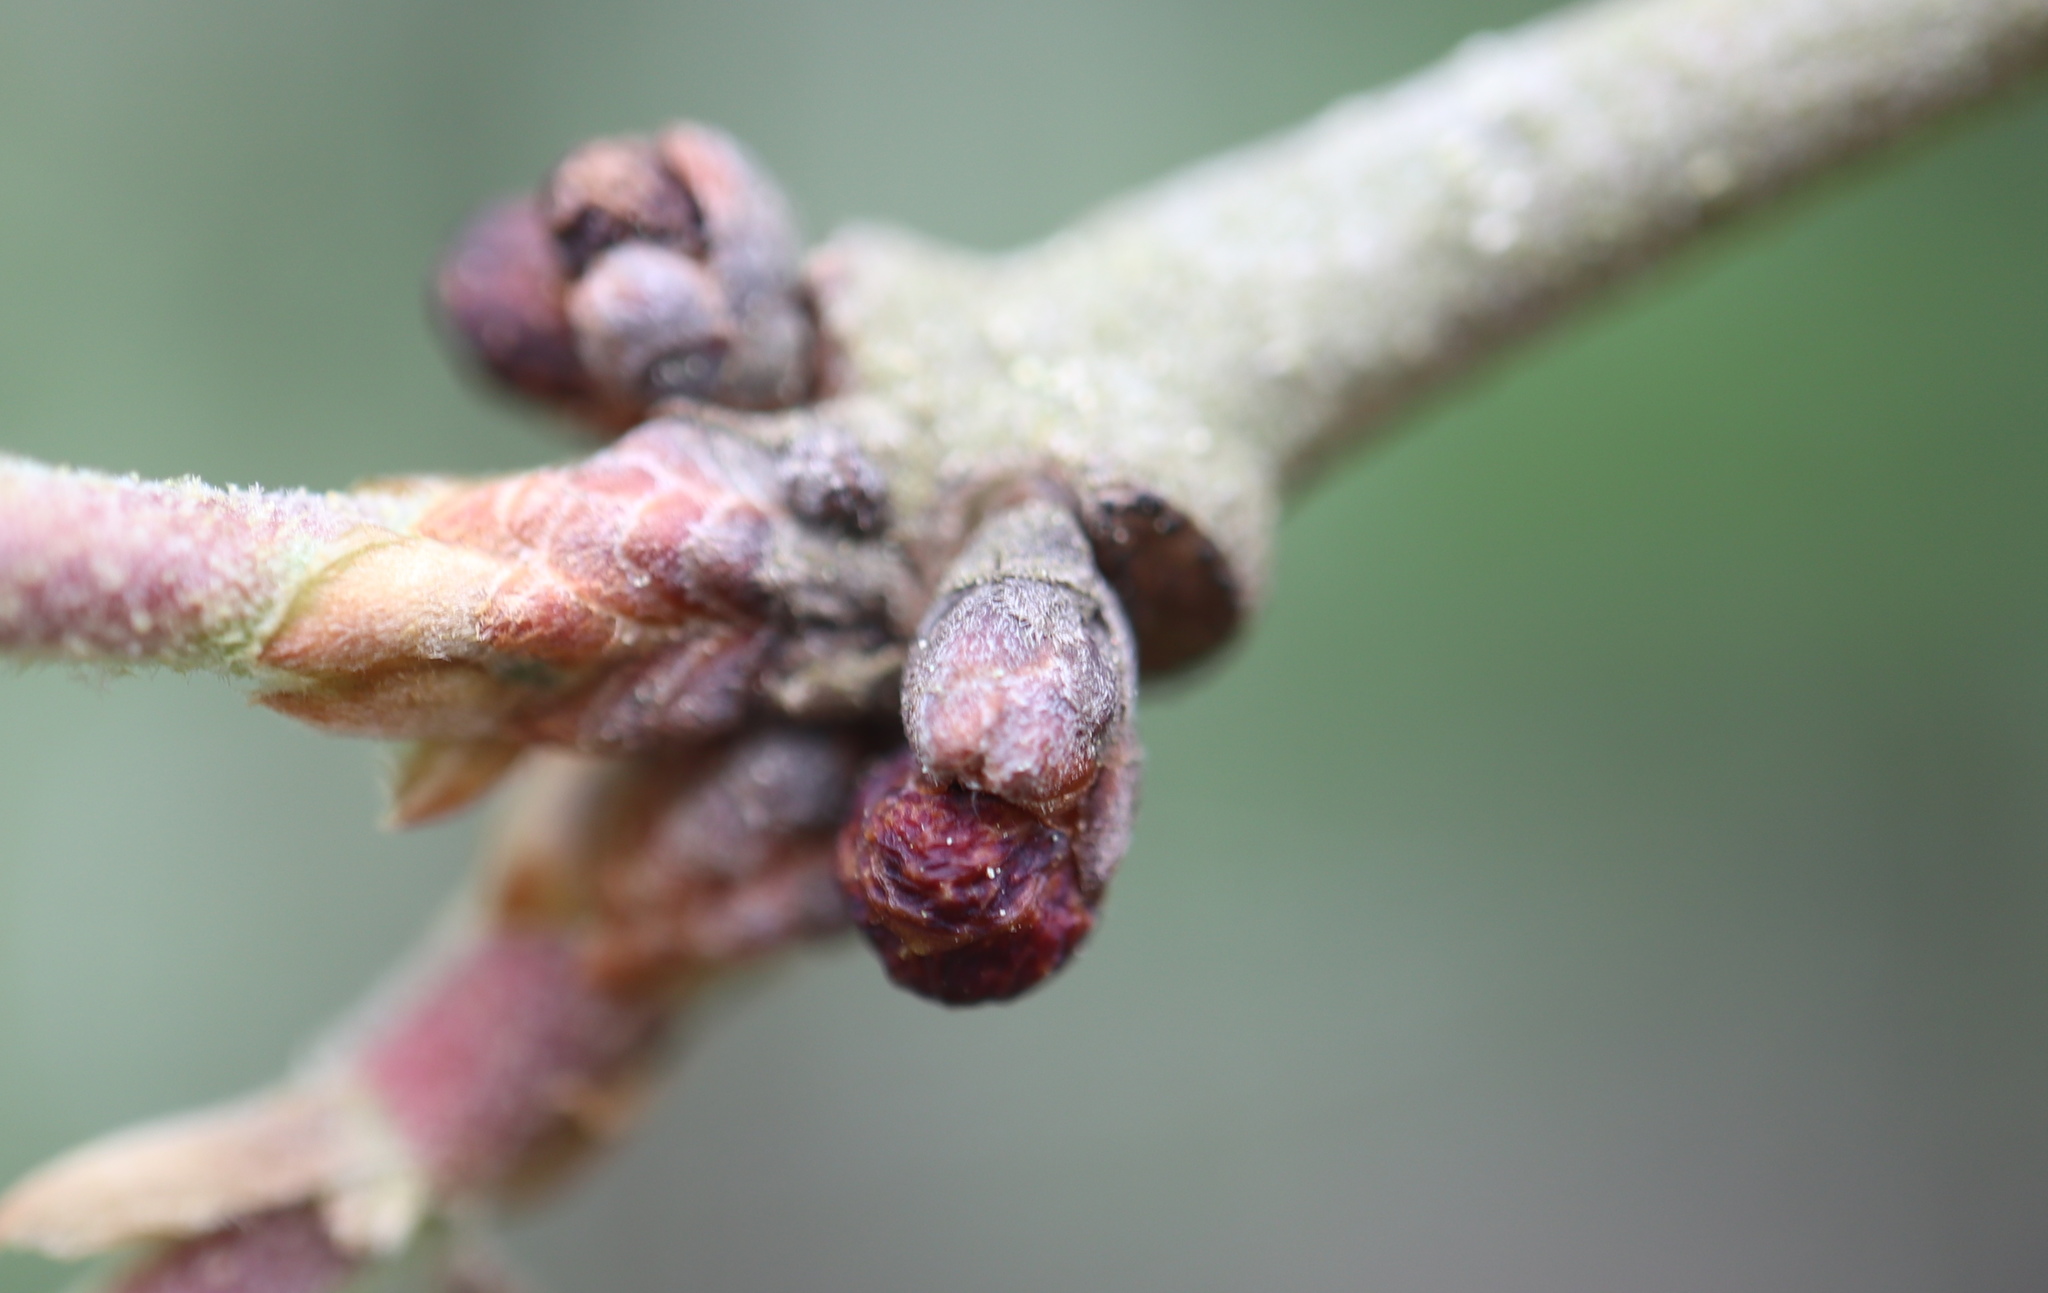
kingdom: Animalia
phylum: Arthropoda
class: Insecta
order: Hymenoptera
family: Cynipidae
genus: Neuroterus
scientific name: Neuroterus
